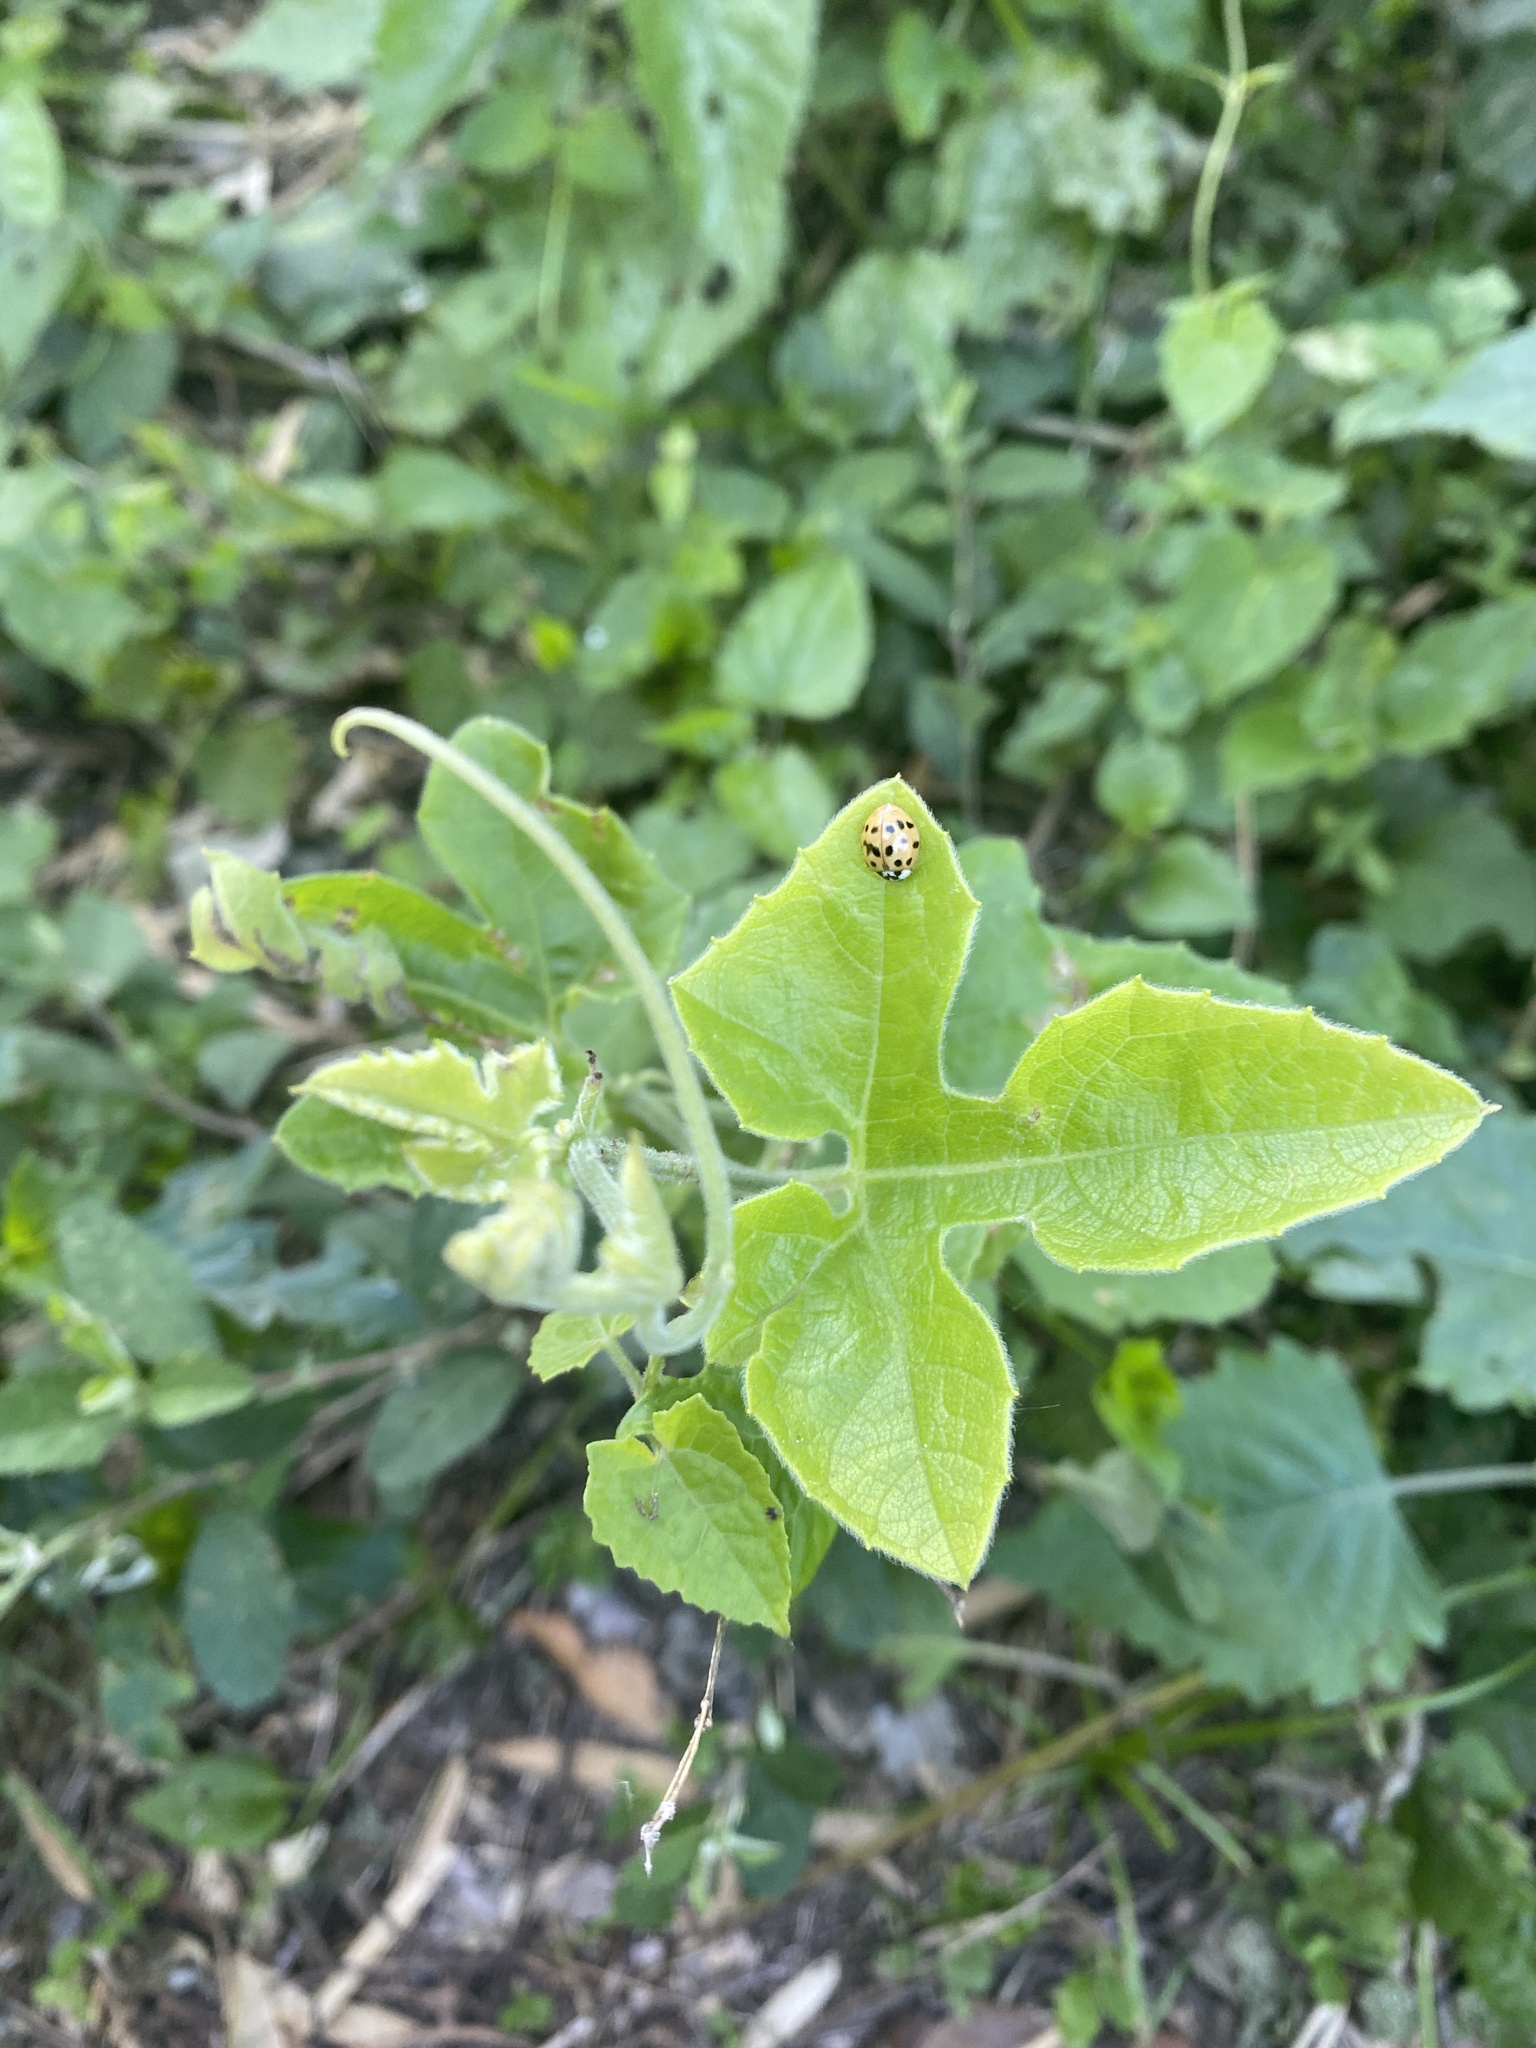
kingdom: Animalia
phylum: Arthropoda
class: Insecta
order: Coleoptera
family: Coccinellidae
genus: Harmonia
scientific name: Harmonia axyridis
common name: Harlequin ladybird
